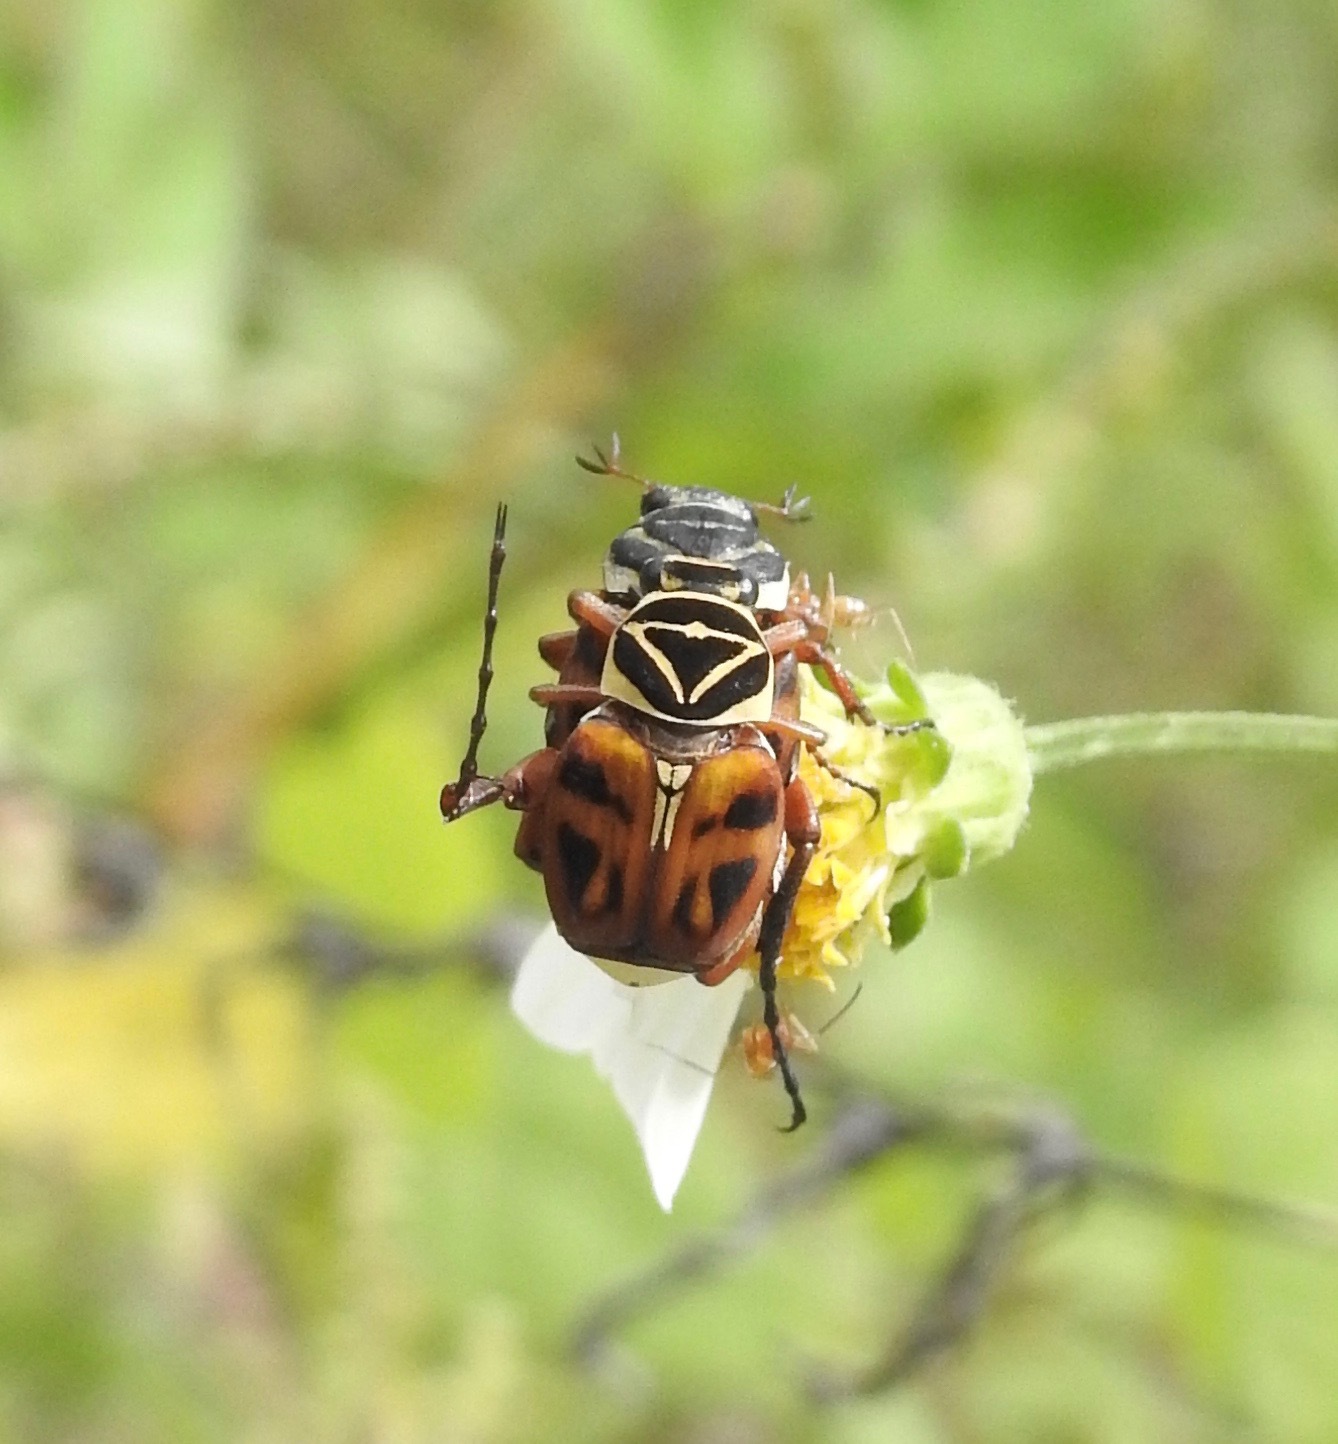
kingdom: Animalia
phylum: Arthropoda
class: Insecta
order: Coleoptera
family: Scarabaeidae
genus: Trigonopeltastes
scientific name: Trigonopeltastes delta
